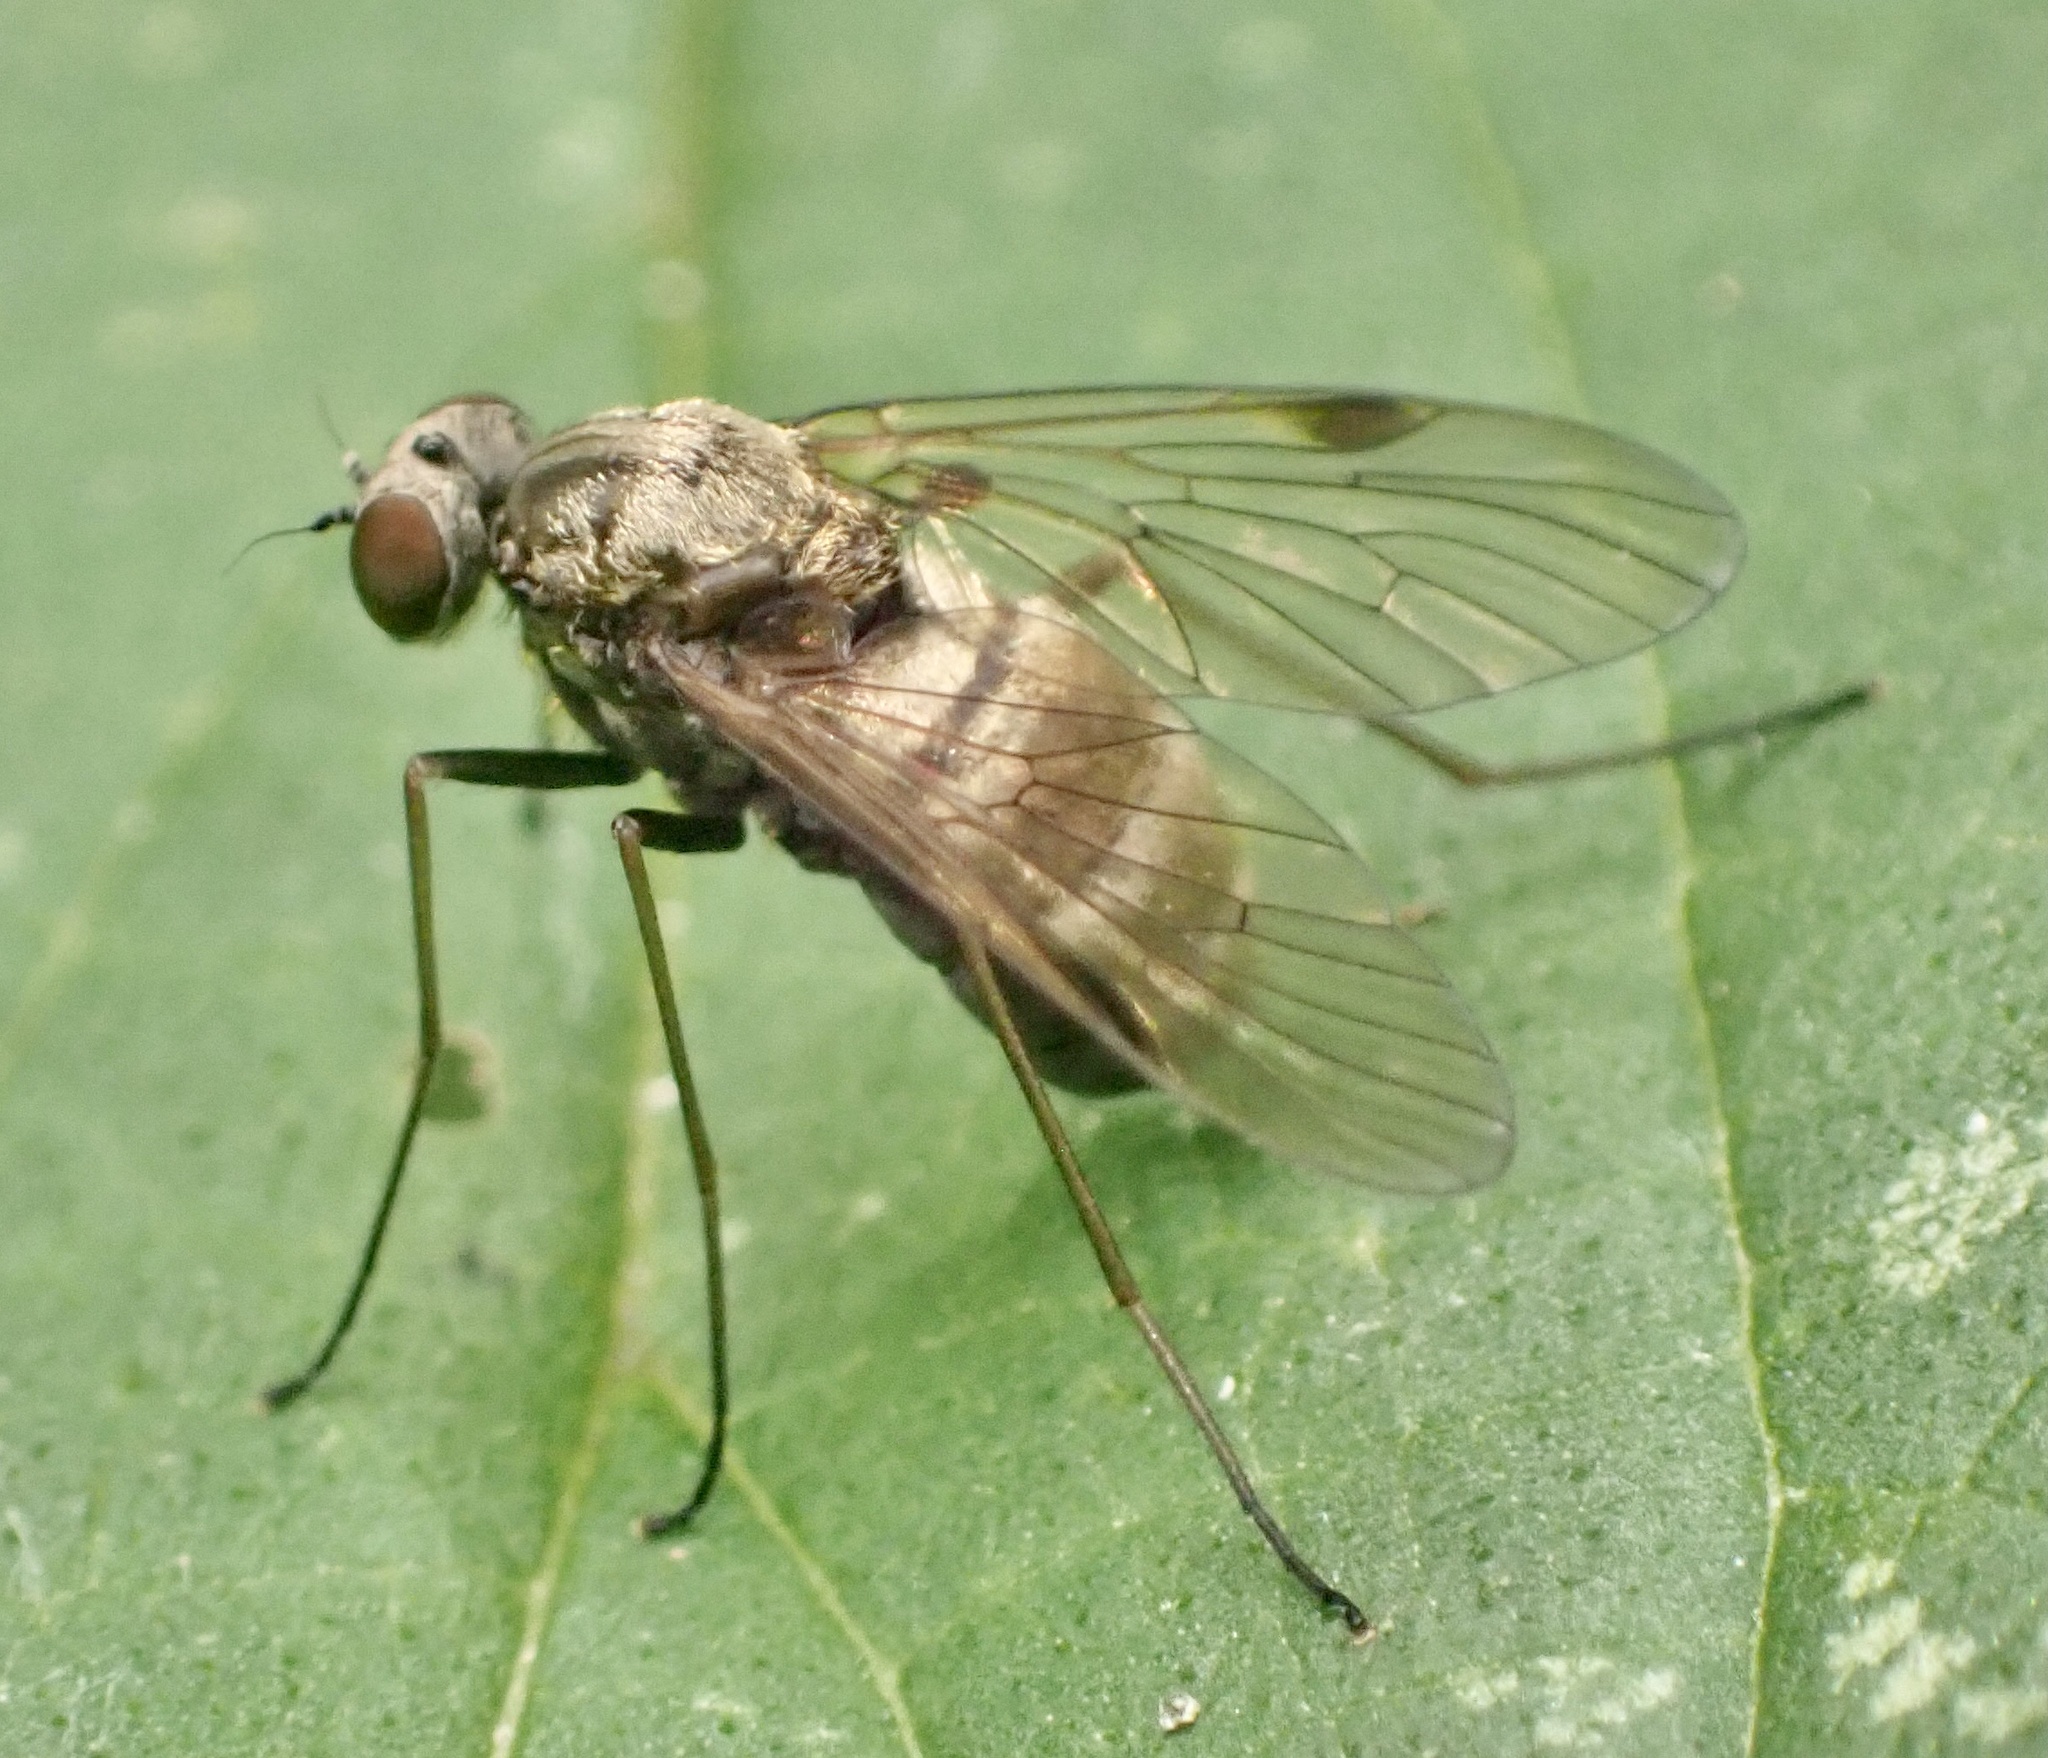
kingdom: Animalia
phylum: Arthropoda
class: Insecta
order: Diptera
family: Rhagionidae
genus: Chrysopilus
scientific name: Chrysopilus cristatus
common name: Black snipefly
